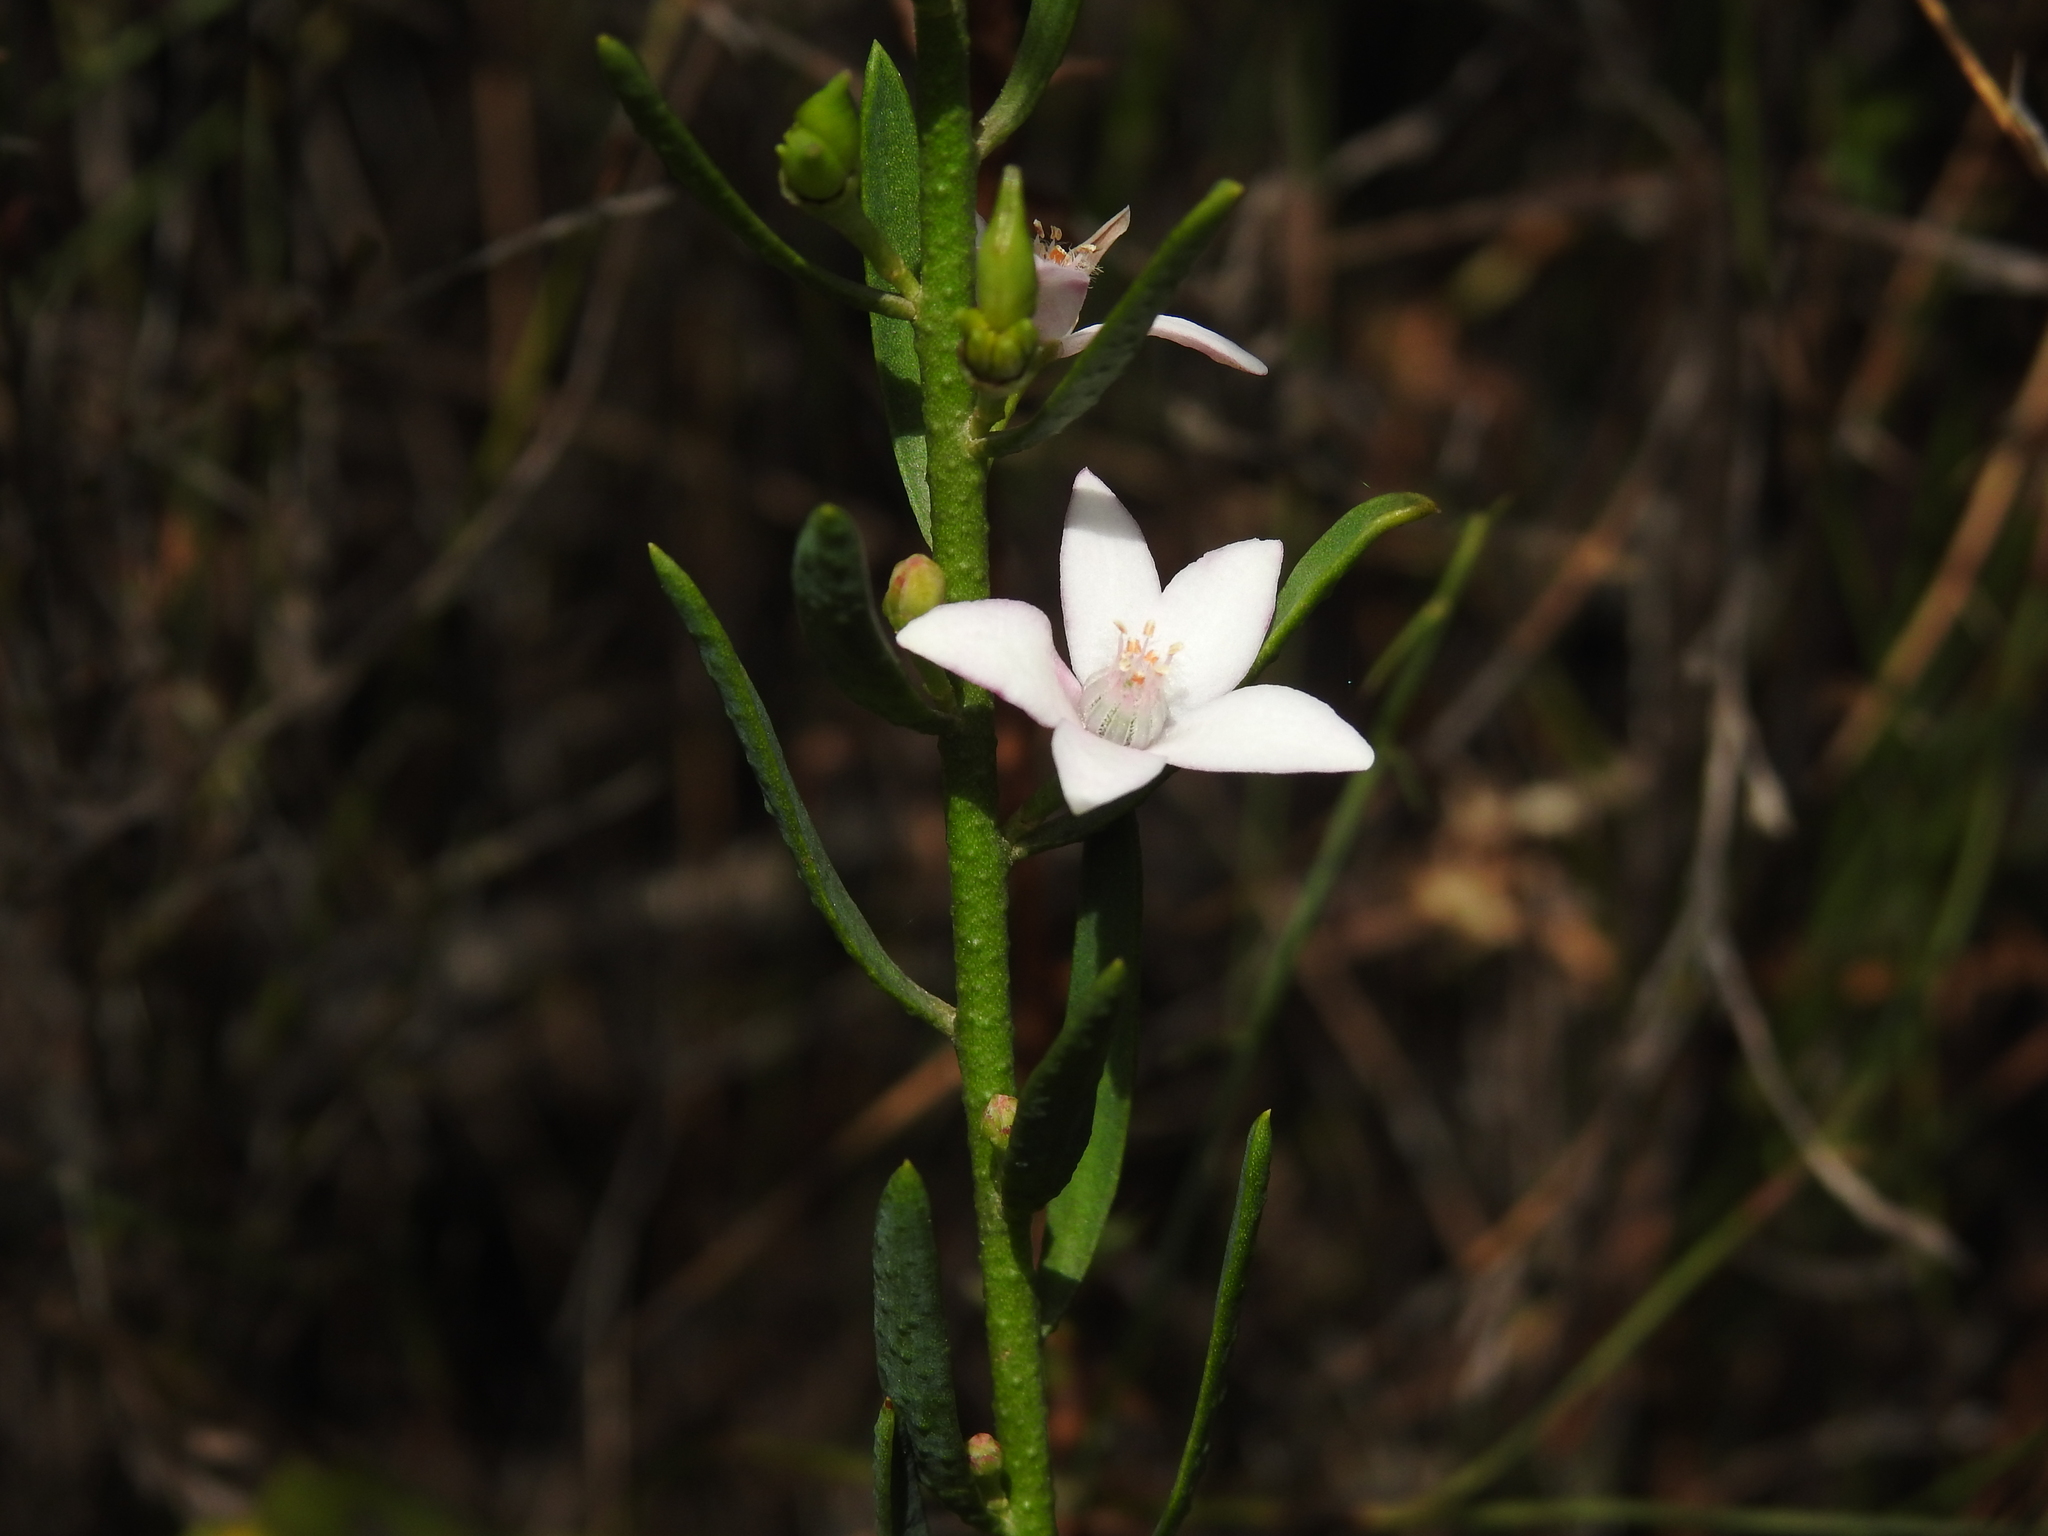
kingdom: Plantae
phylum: Tracheophyta
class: Magnoliopsida
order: Sapindales
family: Rutaceae
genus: Philotheca
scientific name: Philotheca queenslandica
